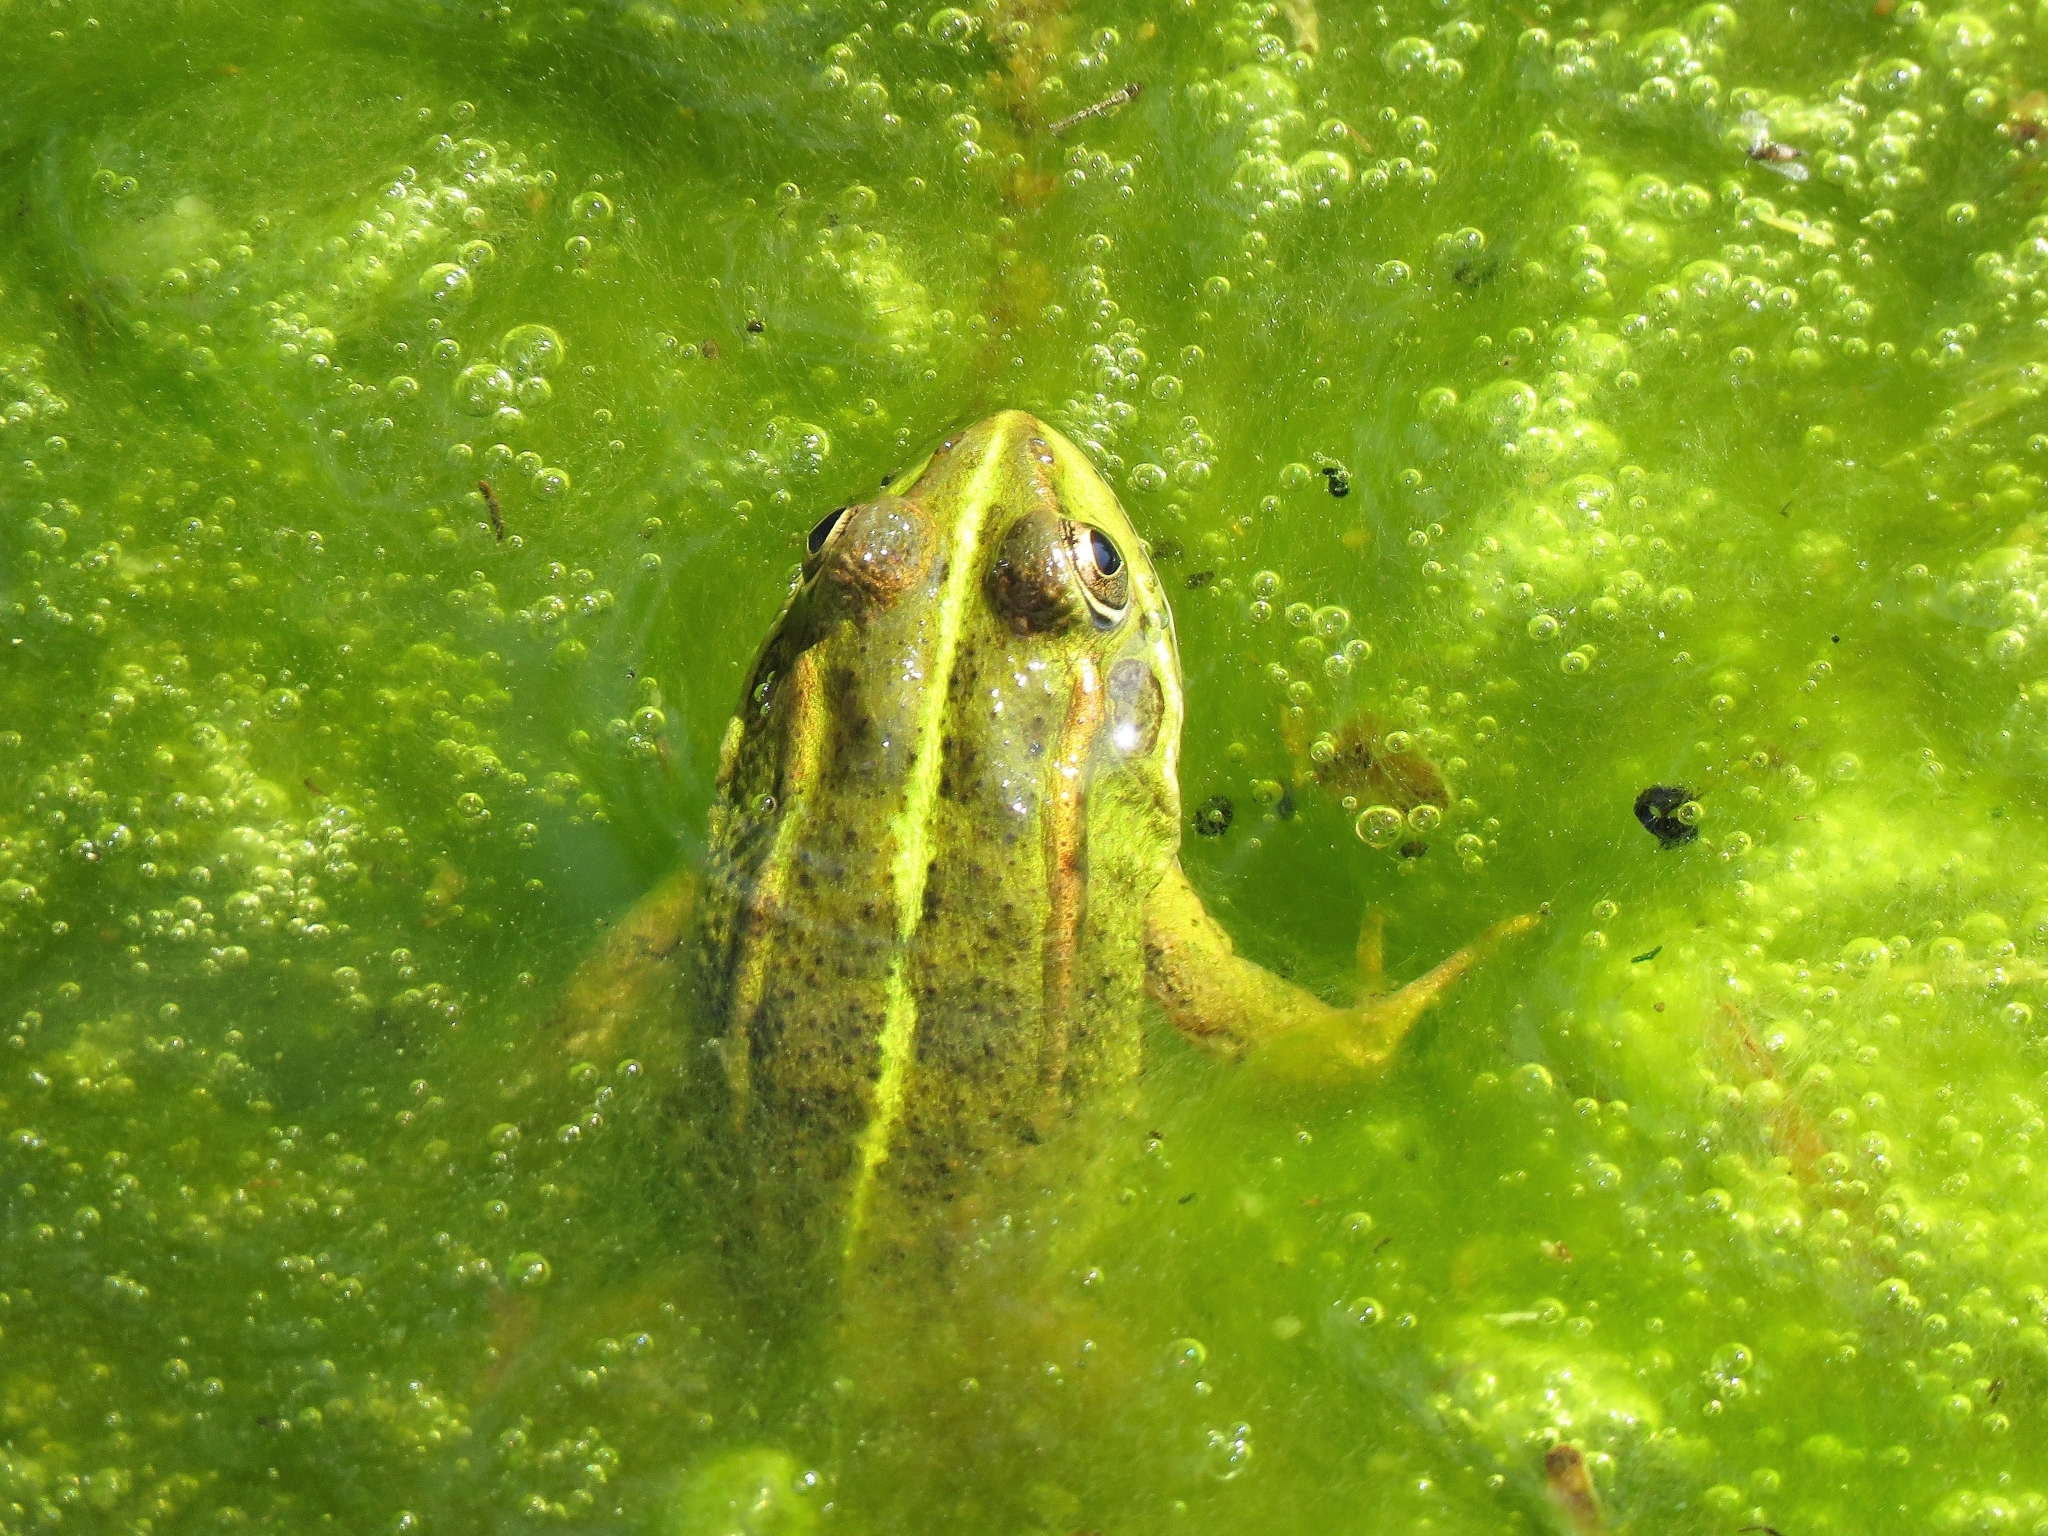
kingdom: Animalia
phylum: Chordata
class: Amphibia
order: Anura
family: Ranidae
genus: Pelophylax
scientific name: Pelophylax perezi
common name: Perez's frog
